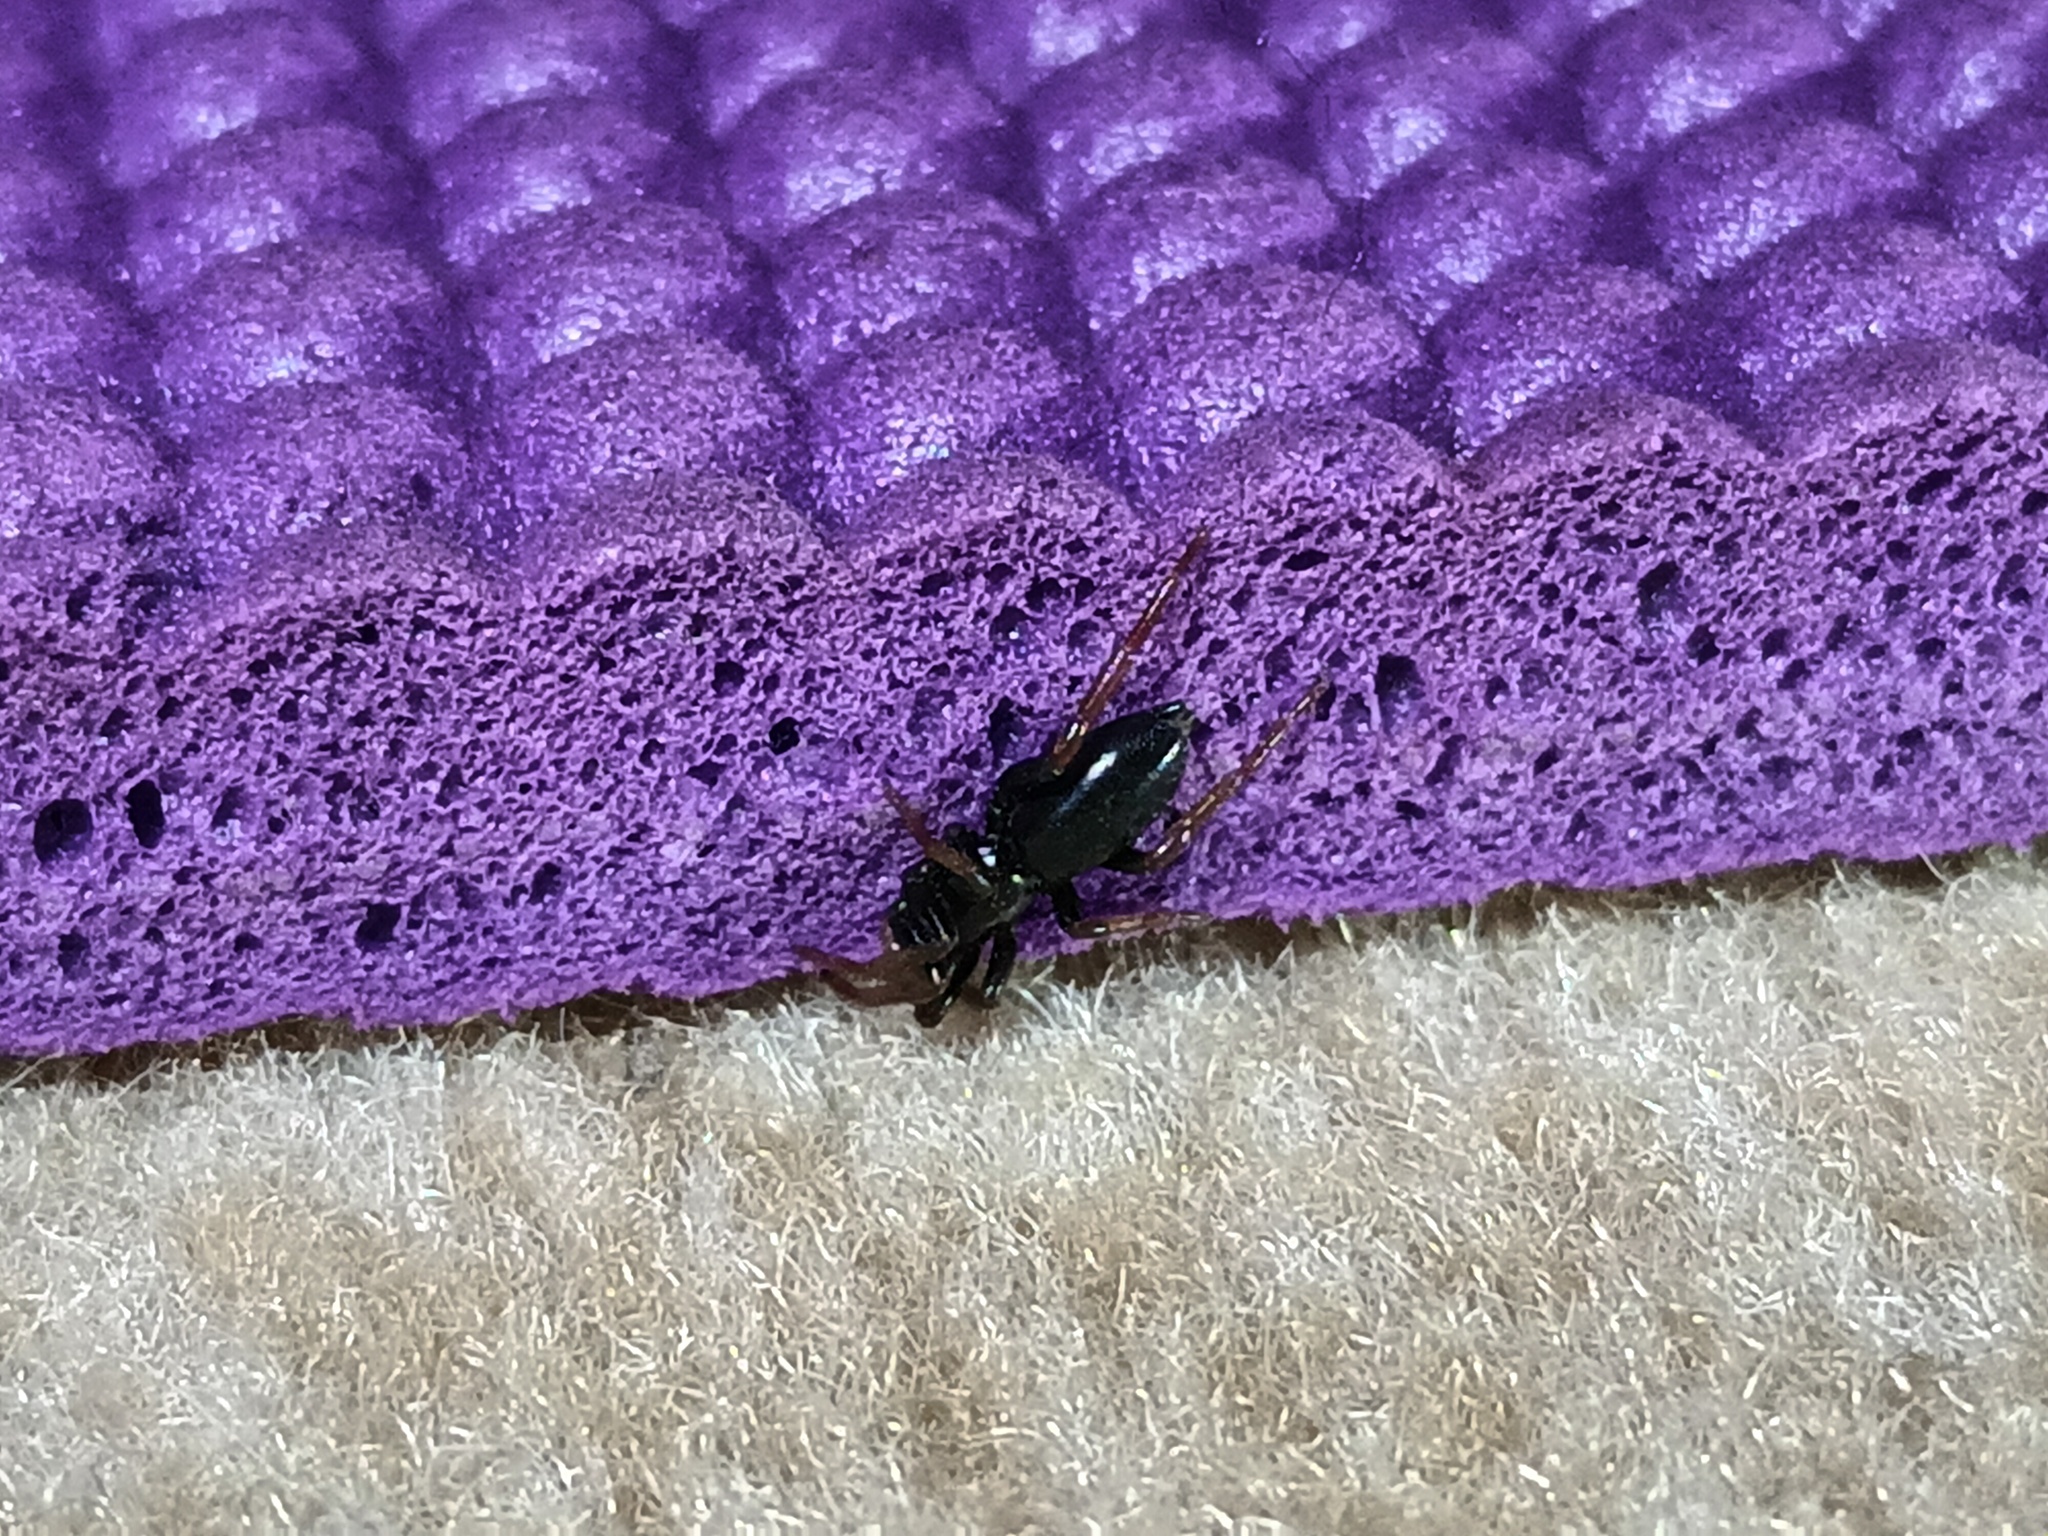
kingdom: Animalia
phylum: Arthropoda
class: Arachnida
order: Araneae
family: Gnaphosidae
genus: Trachyzelotes
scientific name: Trachyzelotes pedestris
